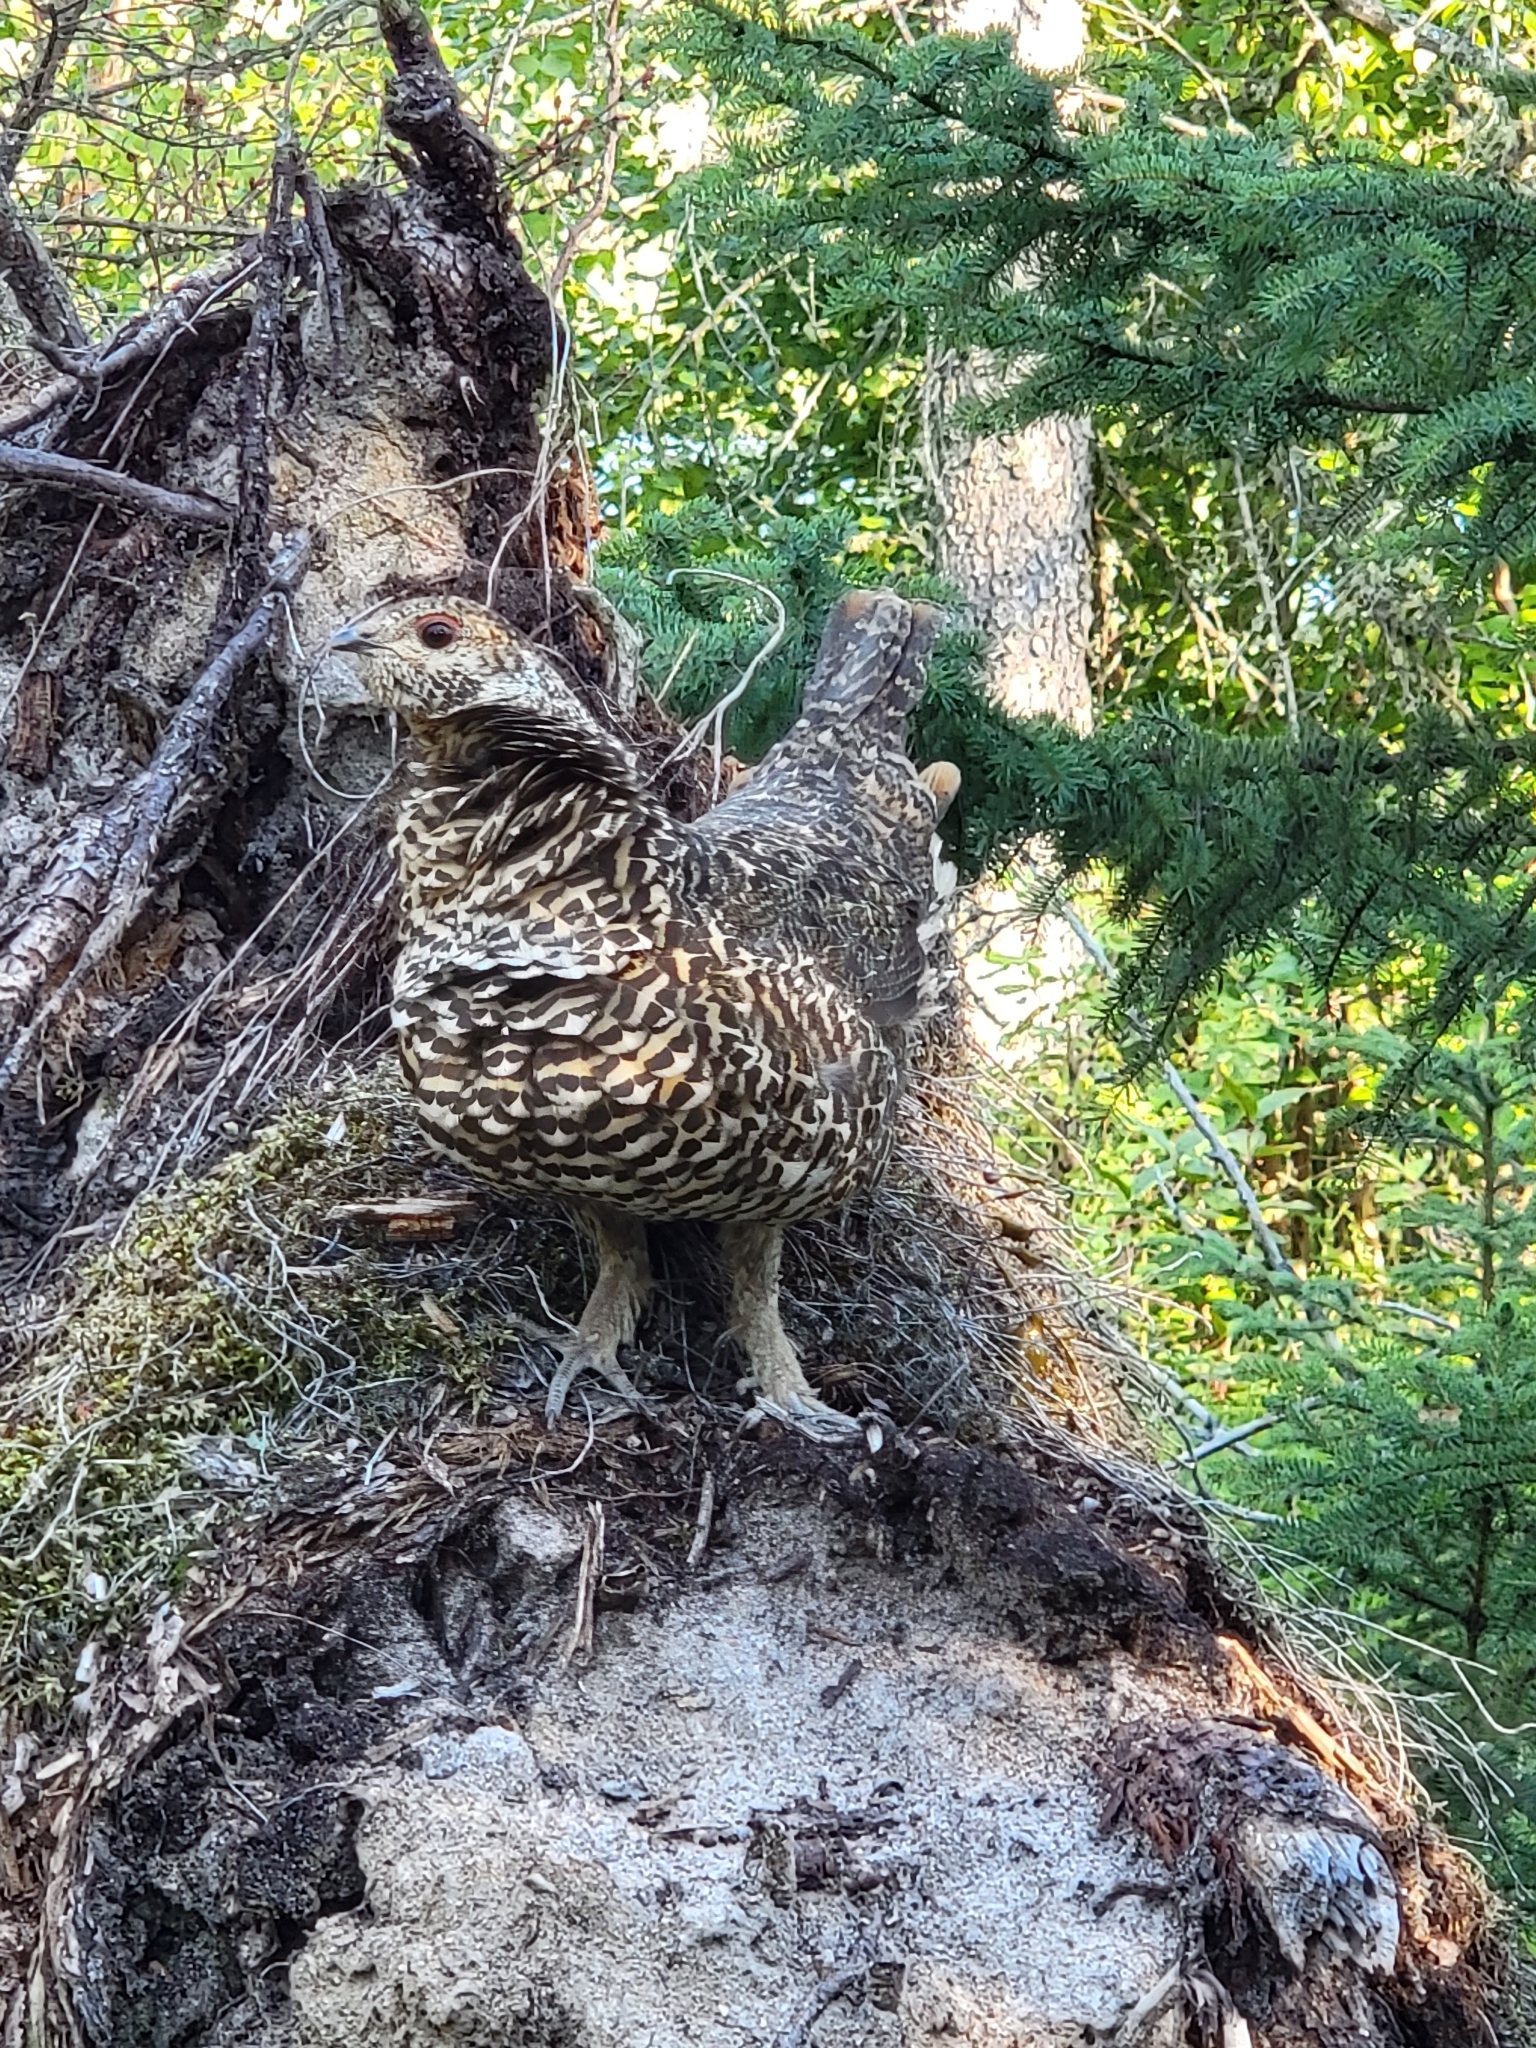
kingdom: Animalia
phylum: Chordata
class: Aves
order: Galliformes
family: Phasianidae
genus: Canachites
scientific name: Canachites canadensis
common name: Spruce grouse
